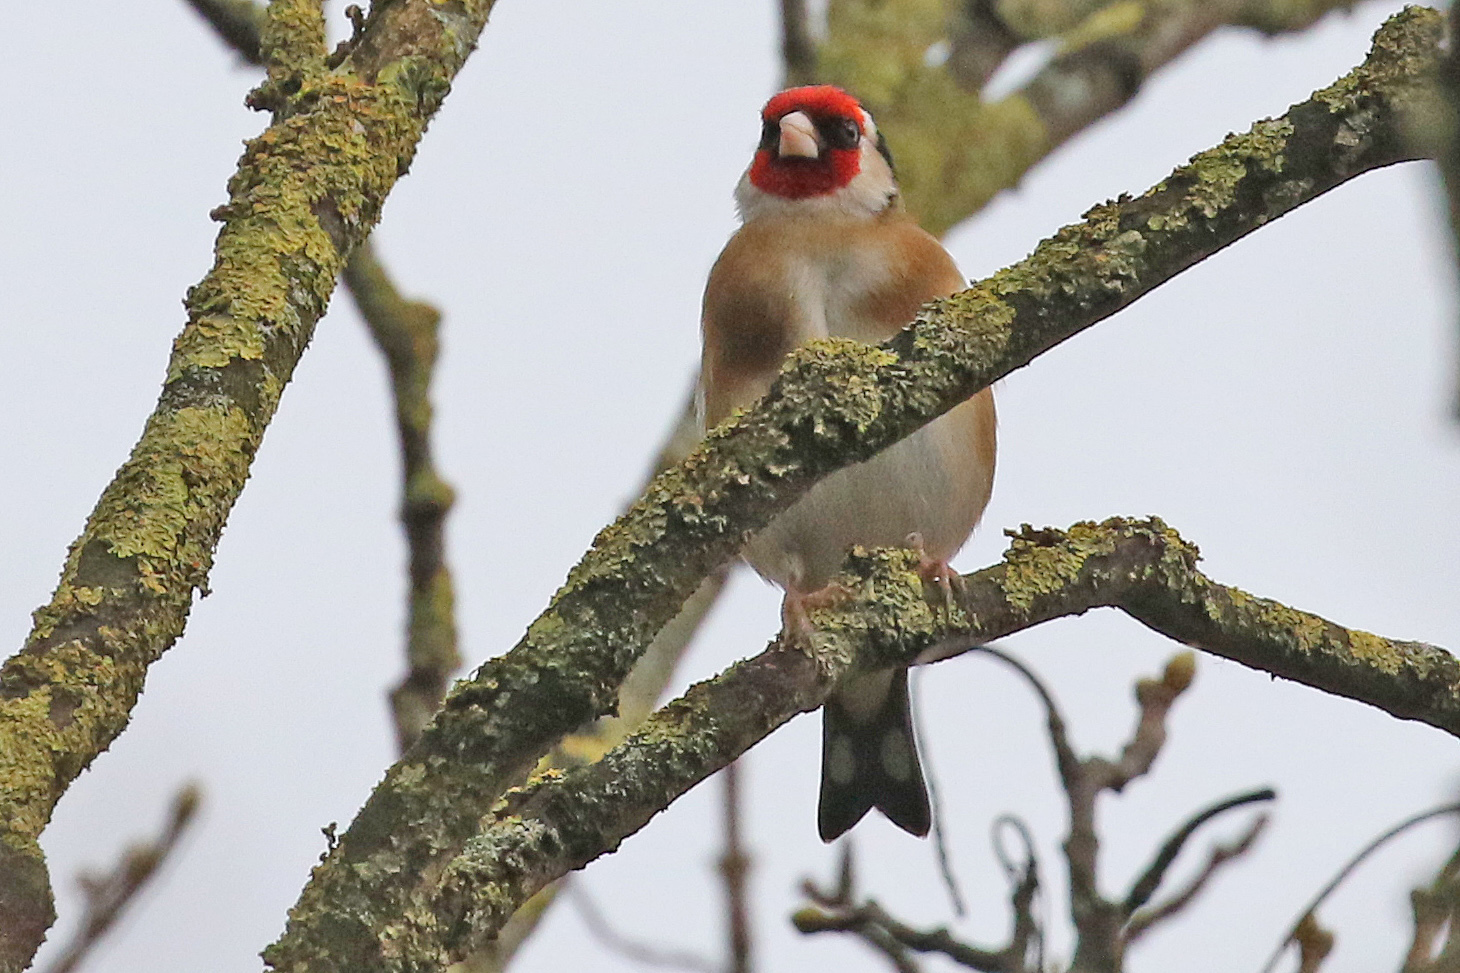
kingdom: Animalia
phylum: Chordata
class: Aves
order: Passeriformes
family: Fringillidae
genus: Carduelis
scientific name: Carduelis carduelis
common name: European goldfinch
